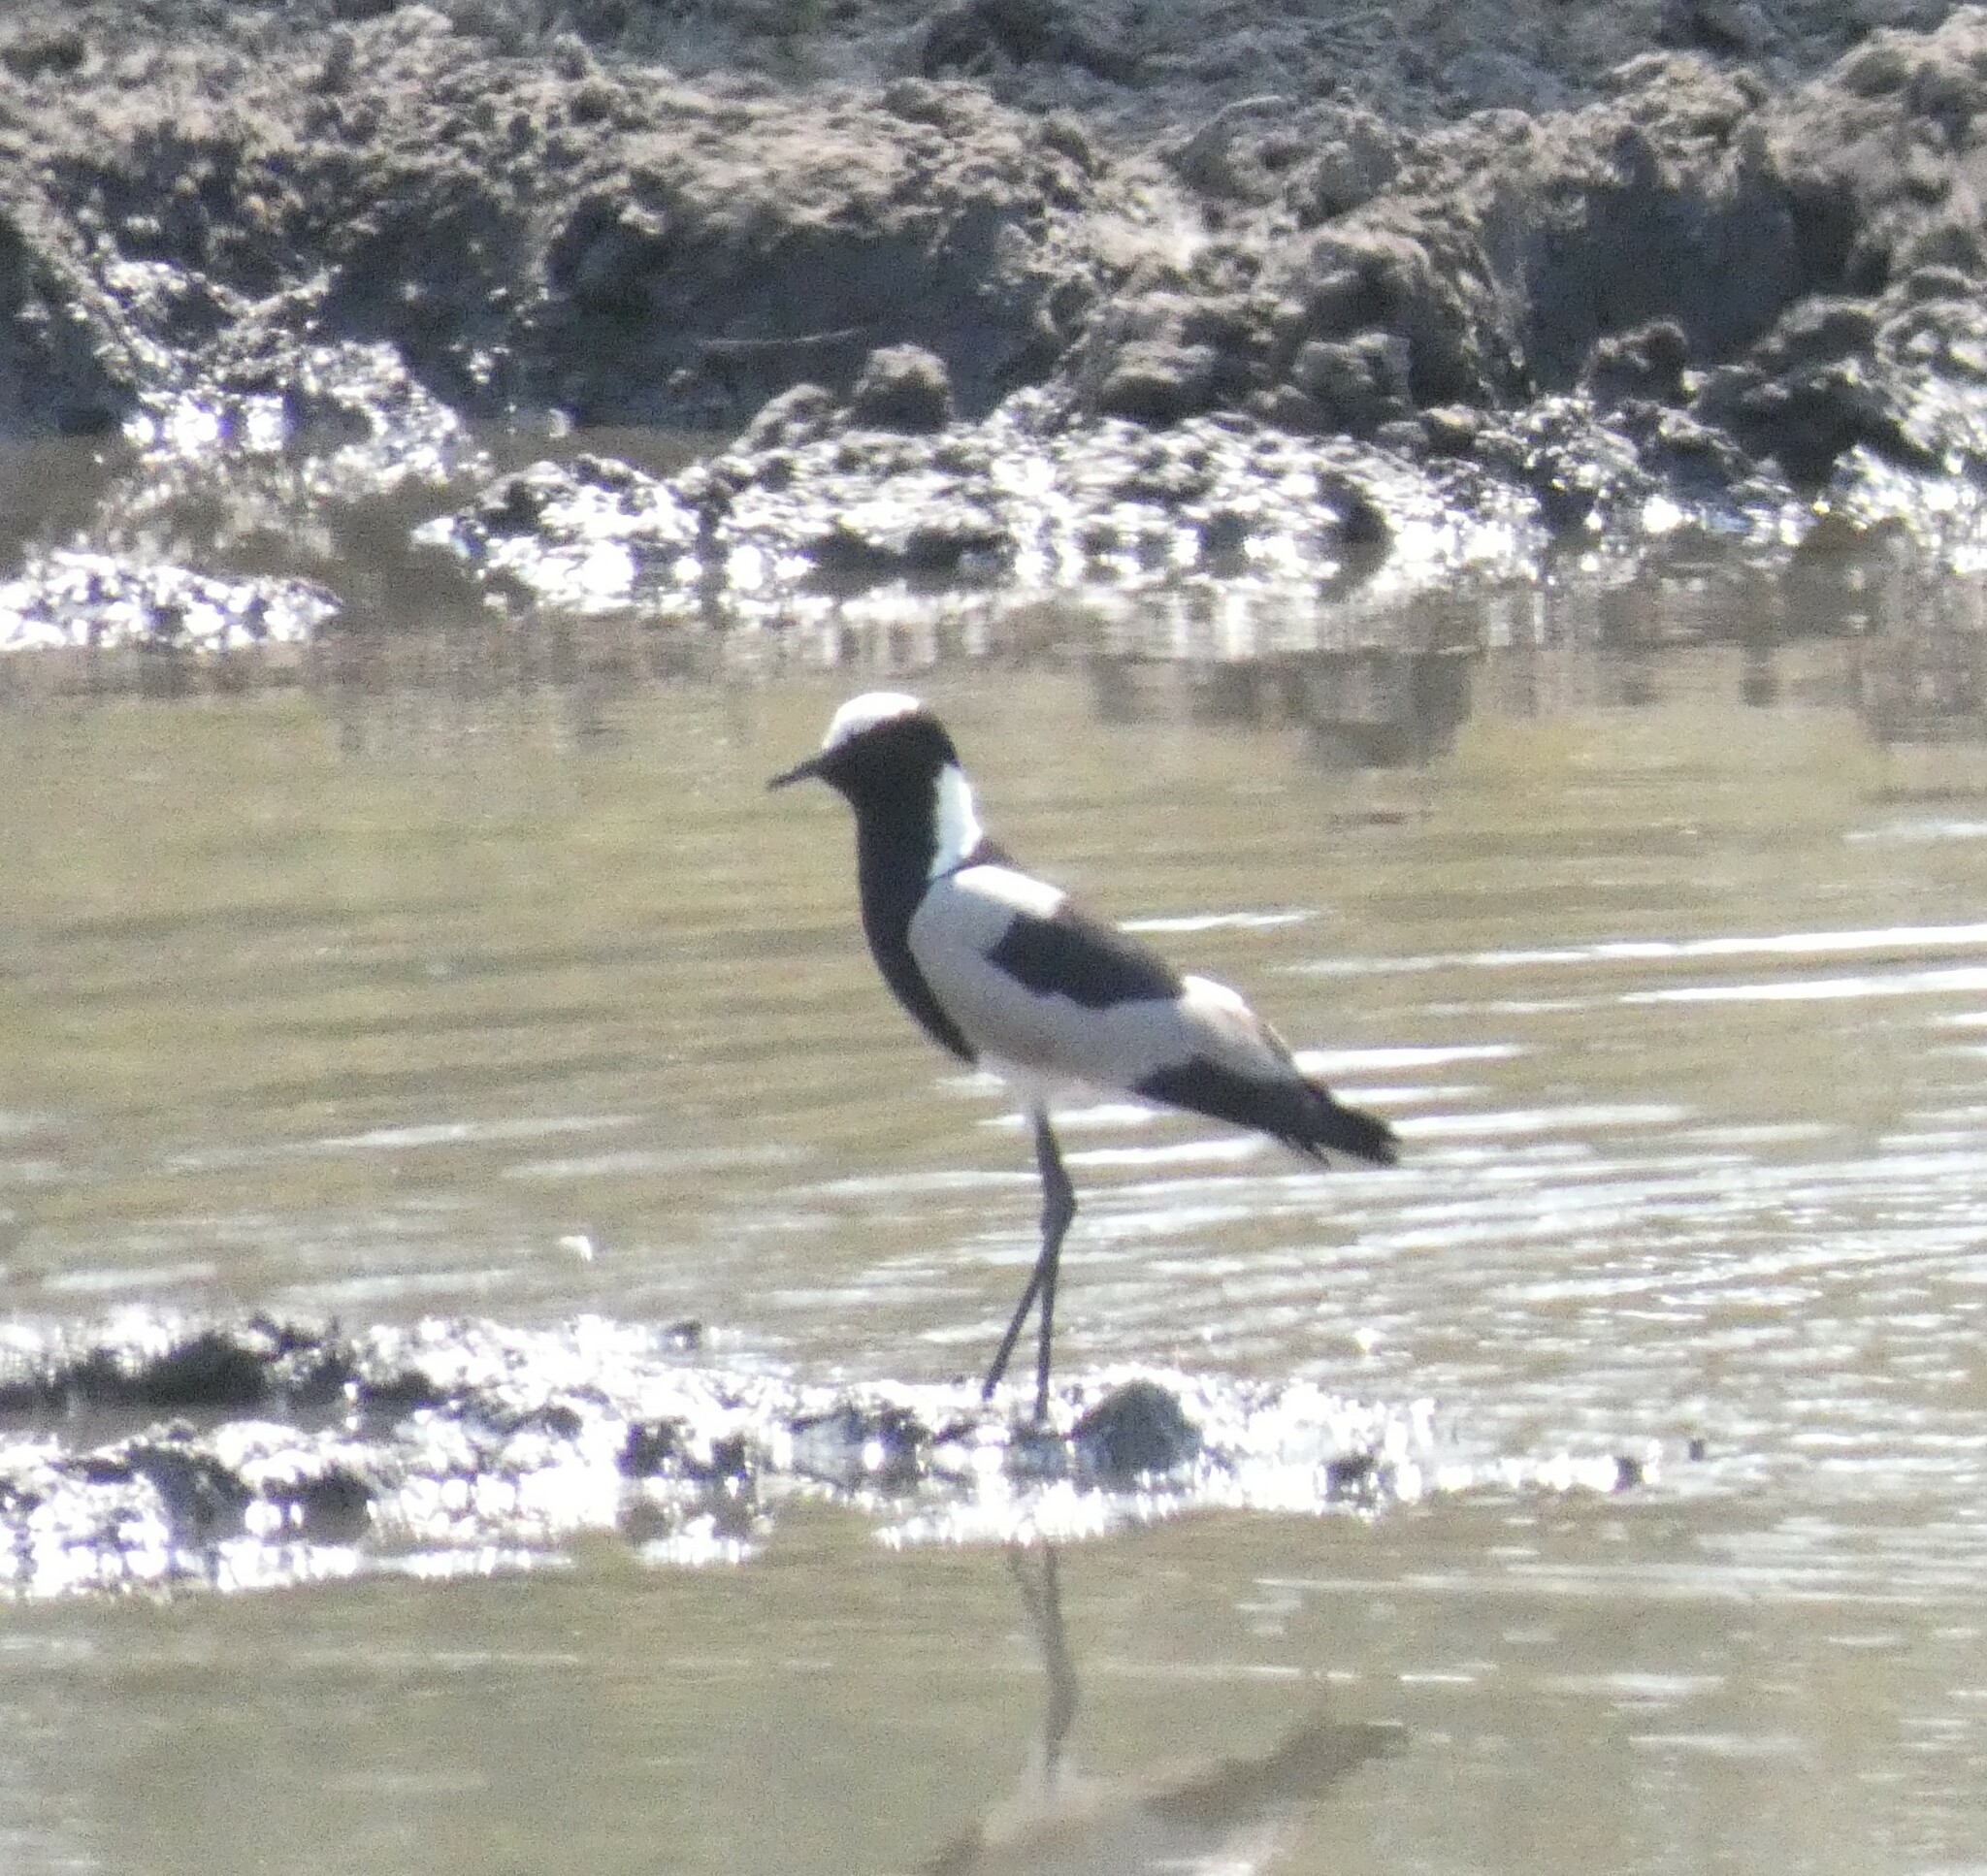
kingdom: Animalia
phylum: Chordata
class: Aves
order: Charadriiformes
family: Charadriidae
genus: Vanellus
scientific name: Vanellus armatus
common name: Blacksmith lapwing
